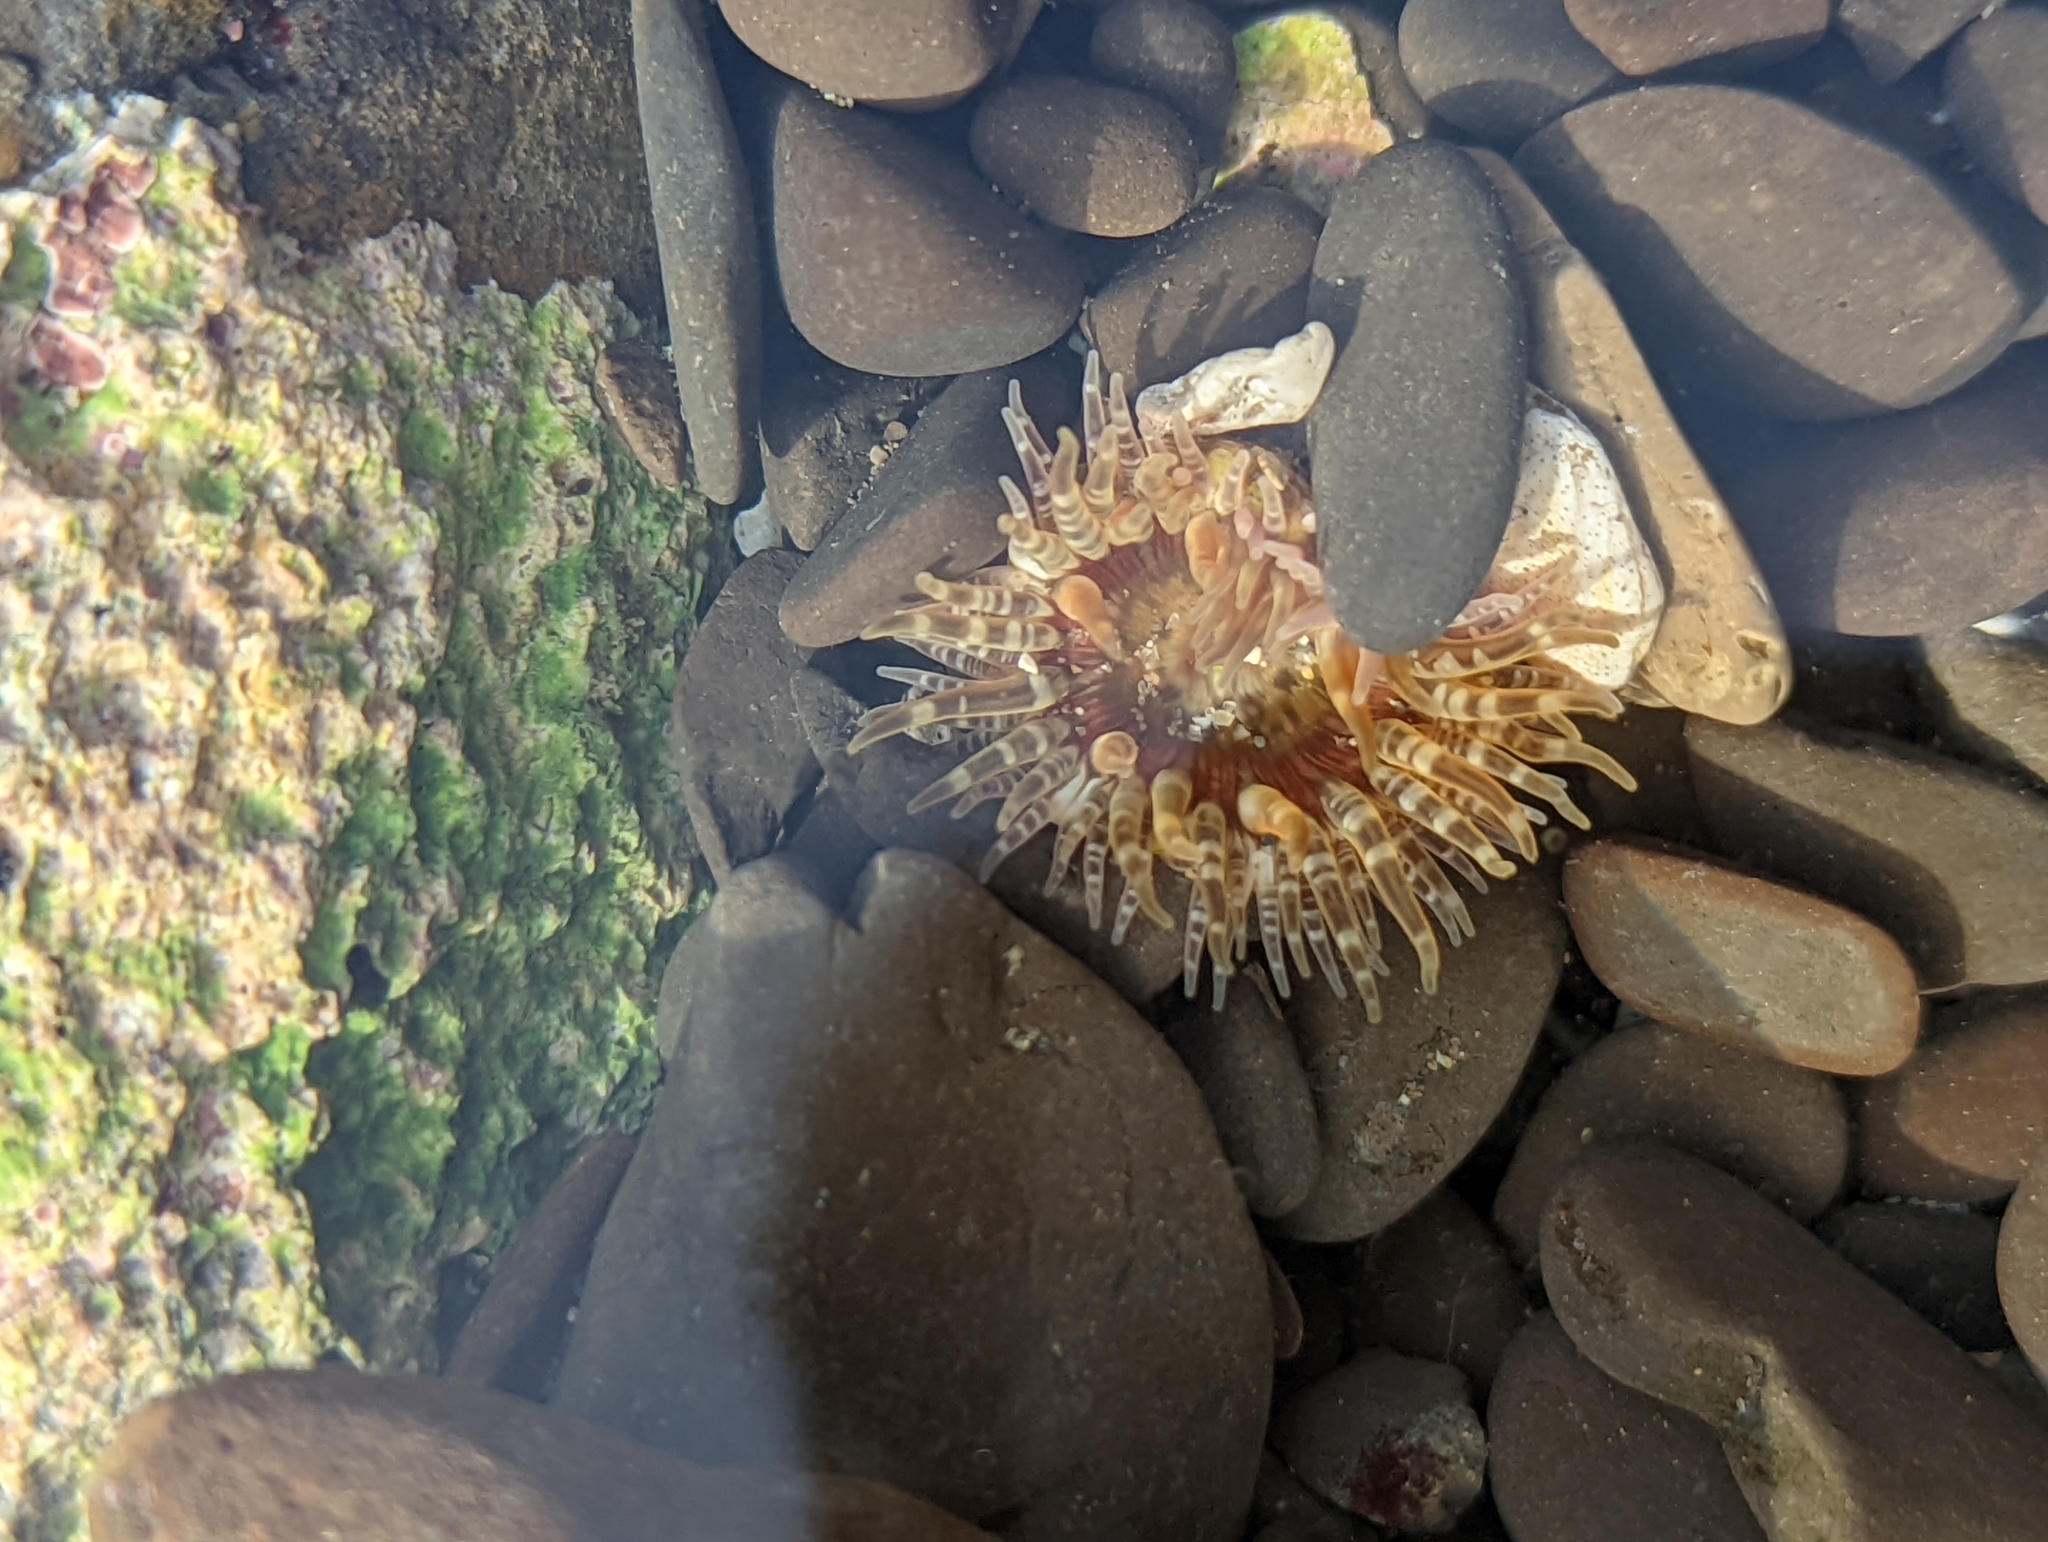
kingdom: Animalia
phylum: Cnidaria
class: Anthozoa
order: Actiniaria
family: Actiniidae
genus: Anthopleura
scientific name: Anthopleura artemisia
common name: Buried sea anemone
